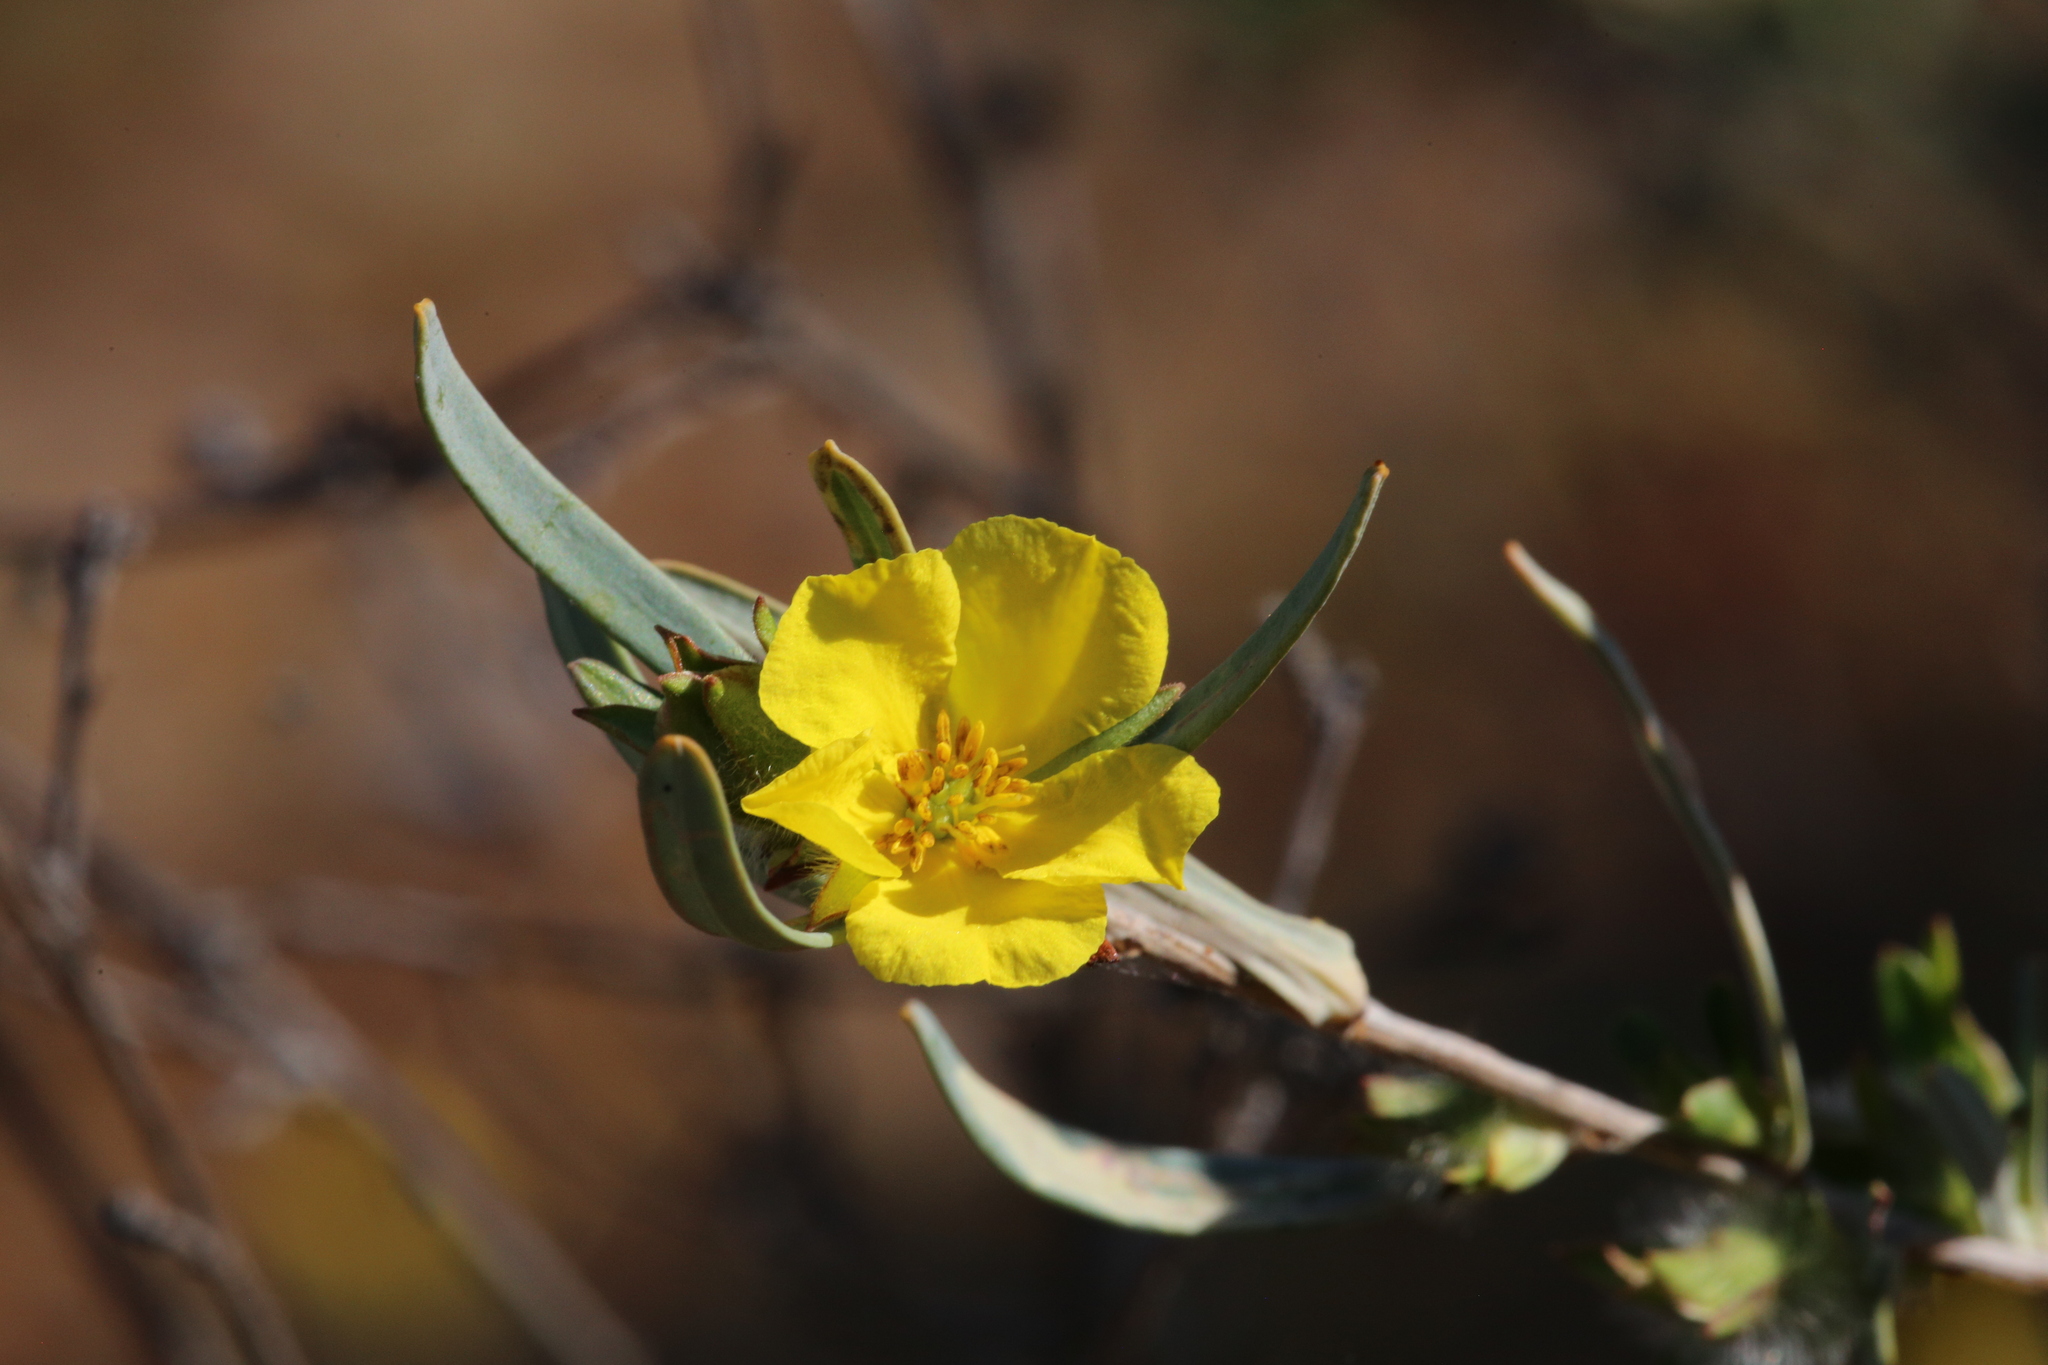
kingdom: Plantae
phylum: Tracheophyta
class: Magnoliopsida
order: Dilleniales
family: Dilleniaceae
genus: Hibbertia
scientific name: Hibbertia glomerosa
